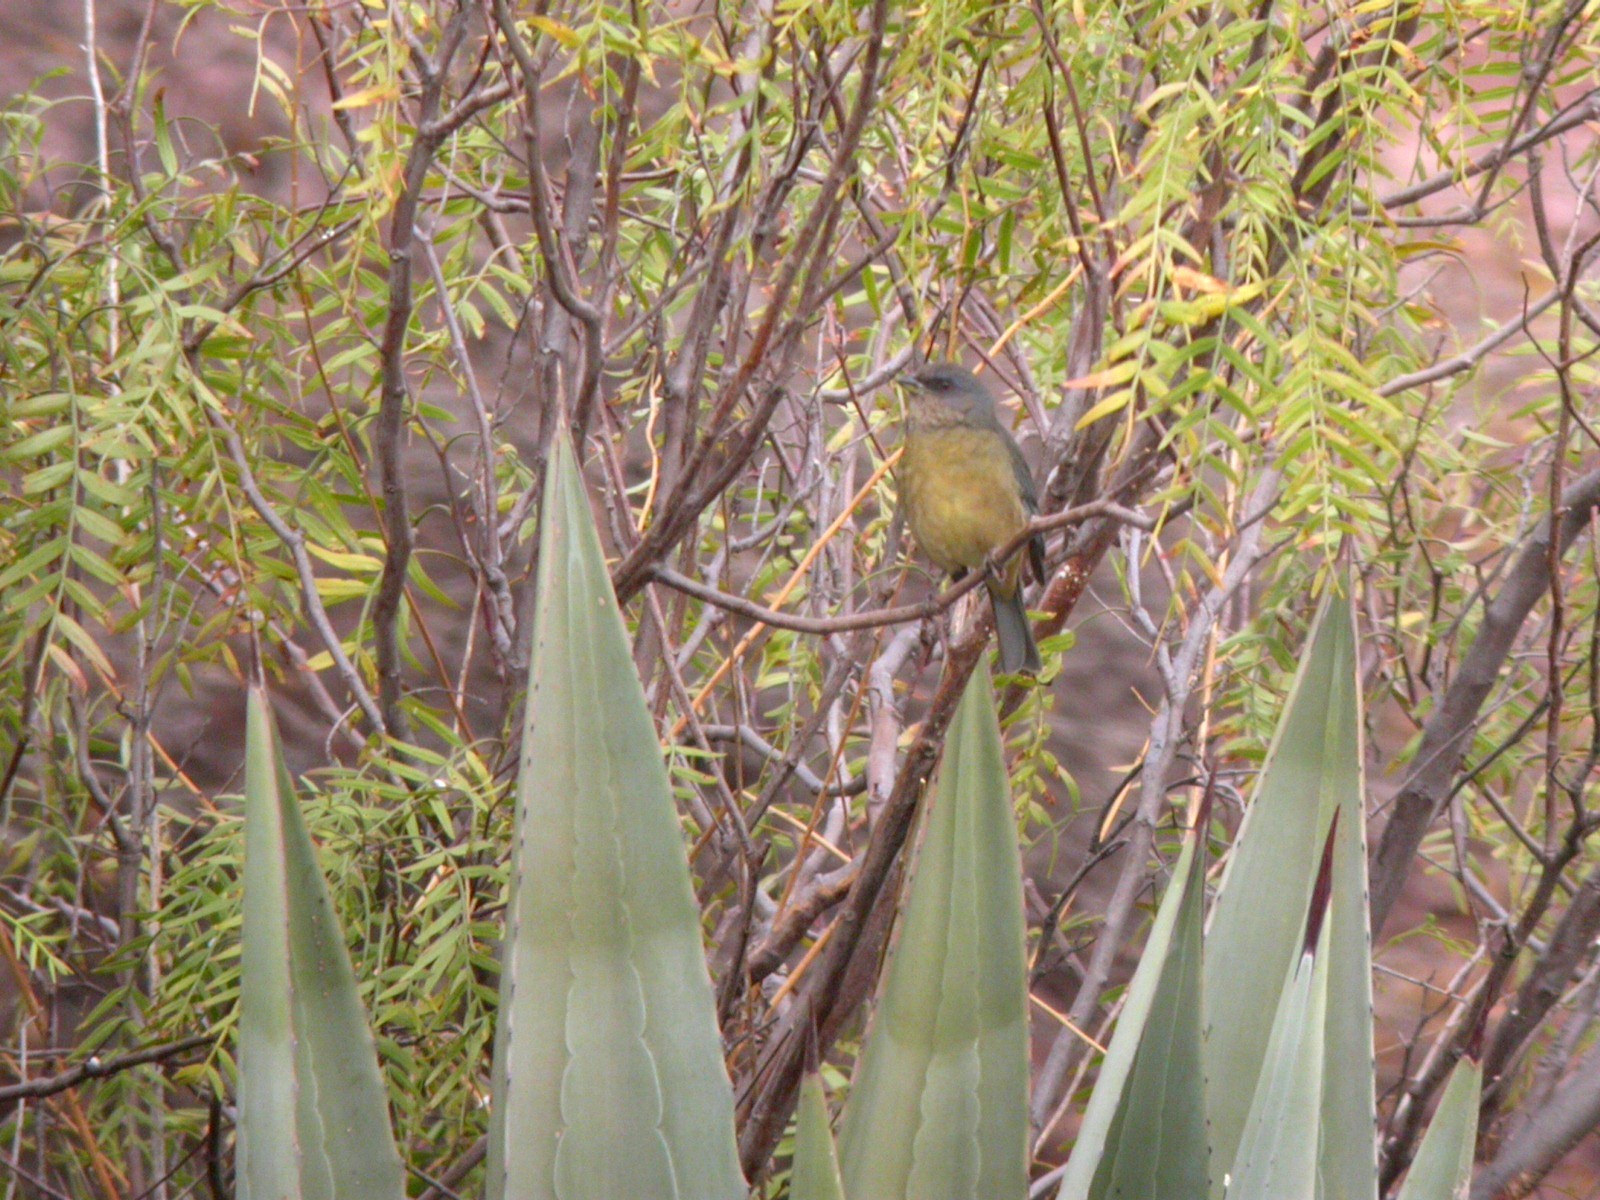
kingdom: Animalia
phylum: Chordata
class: Aves
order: Passeriformes
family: Thraupidae
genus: Rauenia
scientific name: Rauenia bonariensis
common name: Blue-and-yellow tanager
